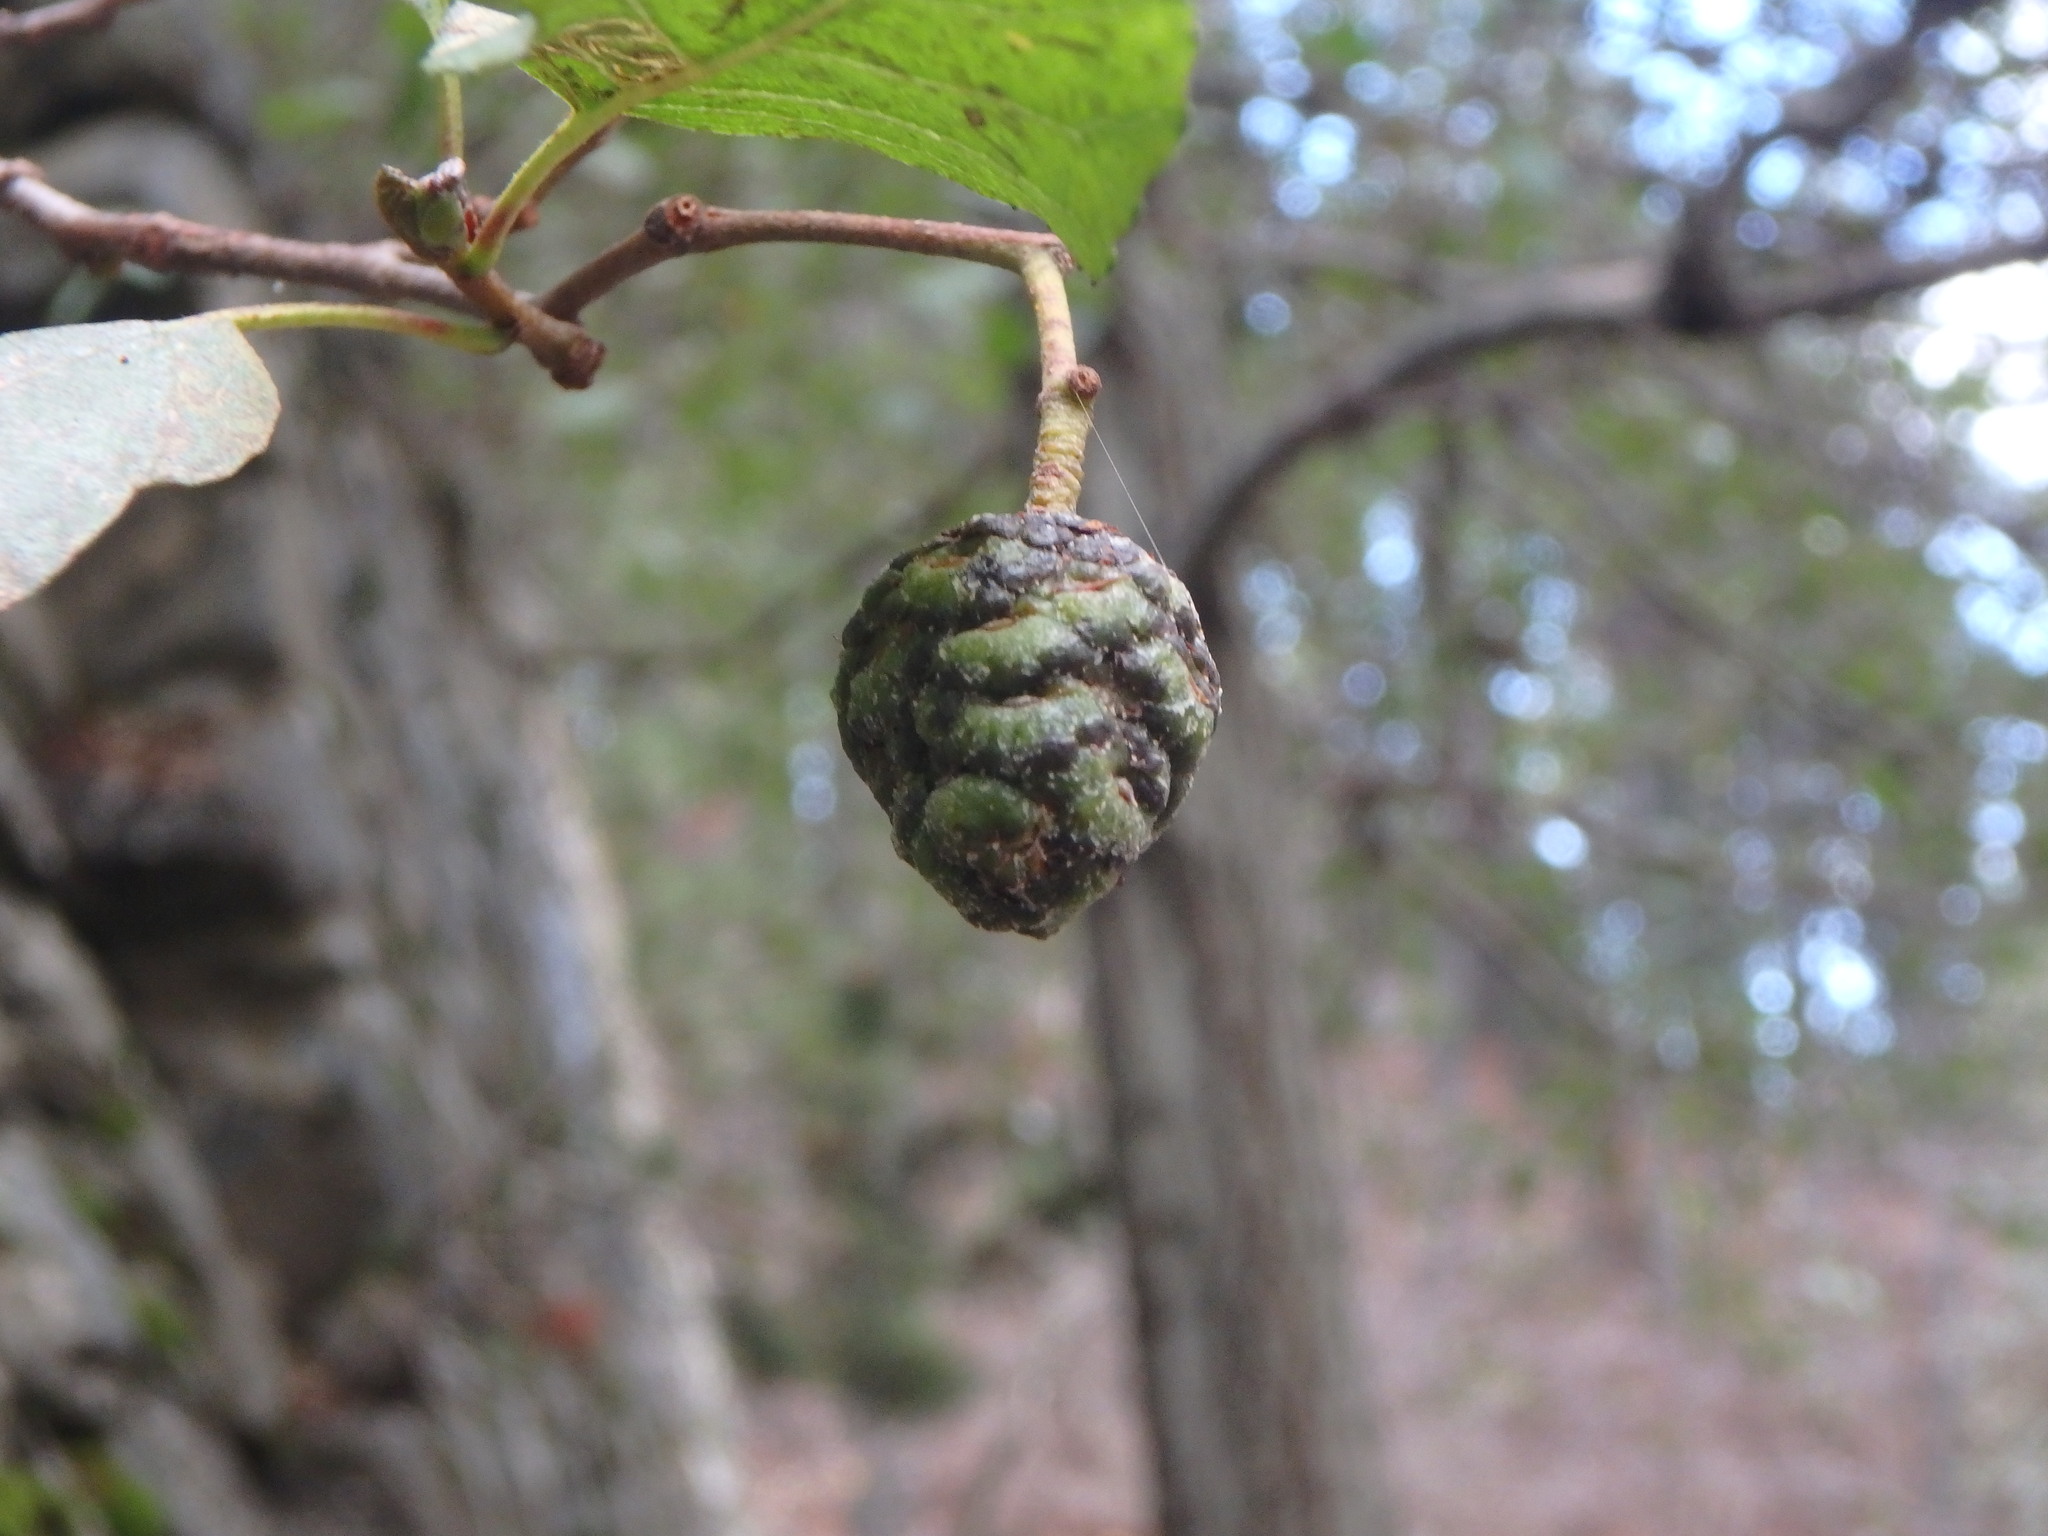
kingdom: Plantae
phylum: Tracheophyta
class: Magnoliopsida
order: Fagales
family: Betulaceae
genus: Alnus
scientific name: Alnus orientalis
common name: Oriental alder
